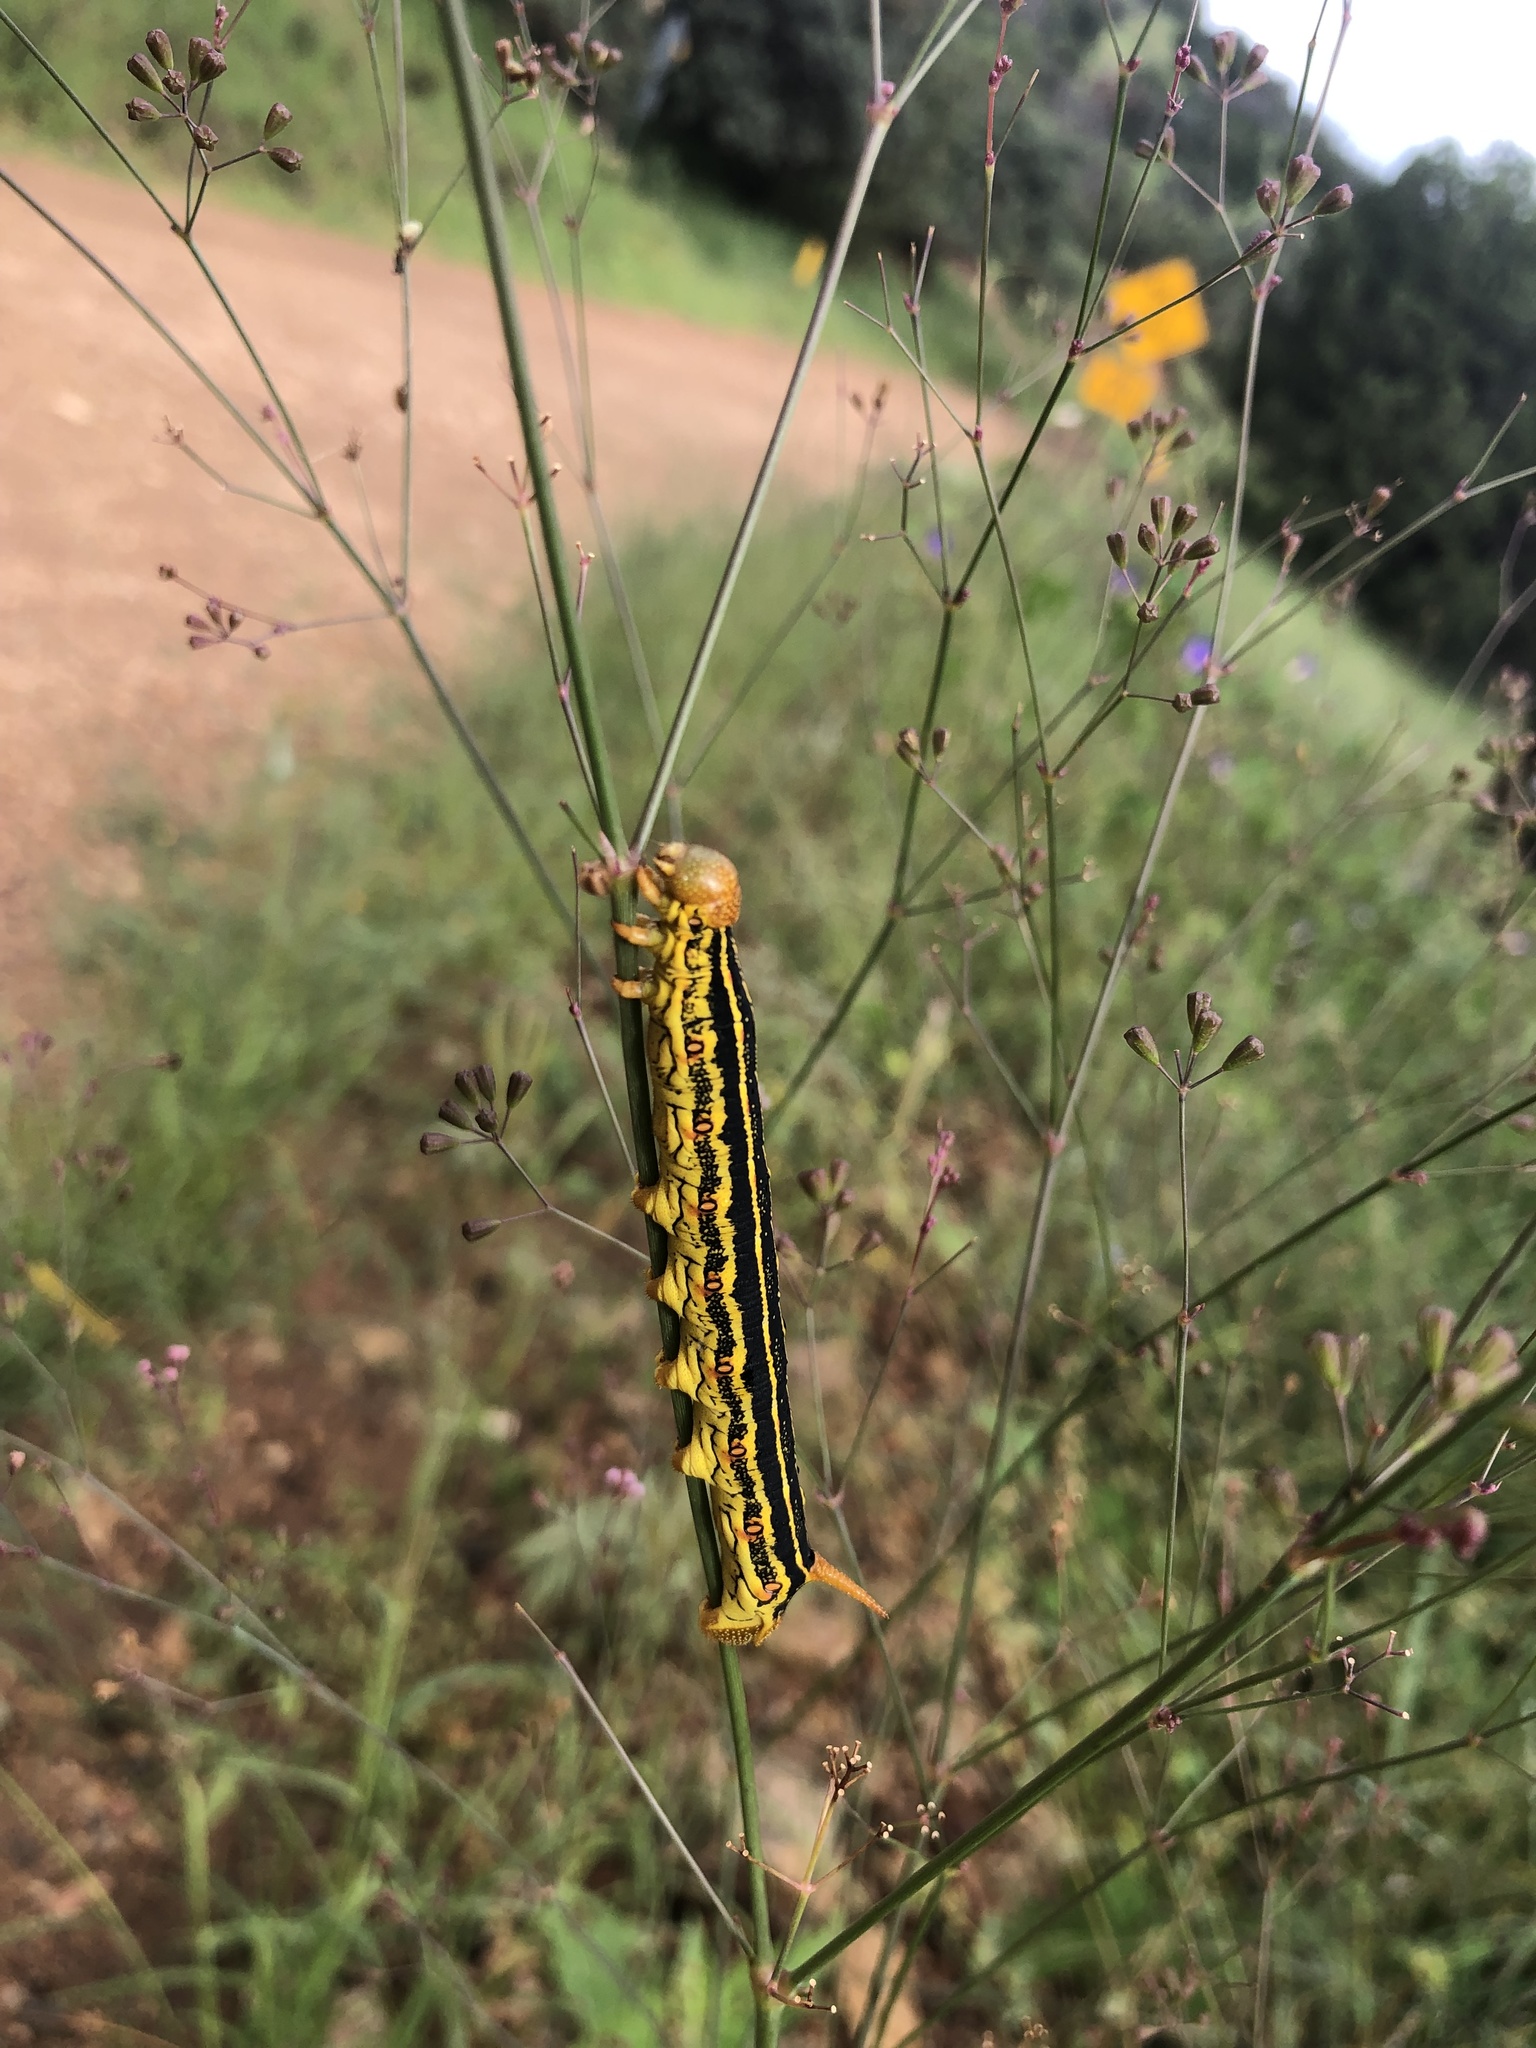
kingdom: Animalia
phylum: Arthropoda
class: Insecta
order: Lepidoptera
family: Sphingidae
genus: Hyles
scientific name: Hyles lineata
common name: White-lined sphinx
